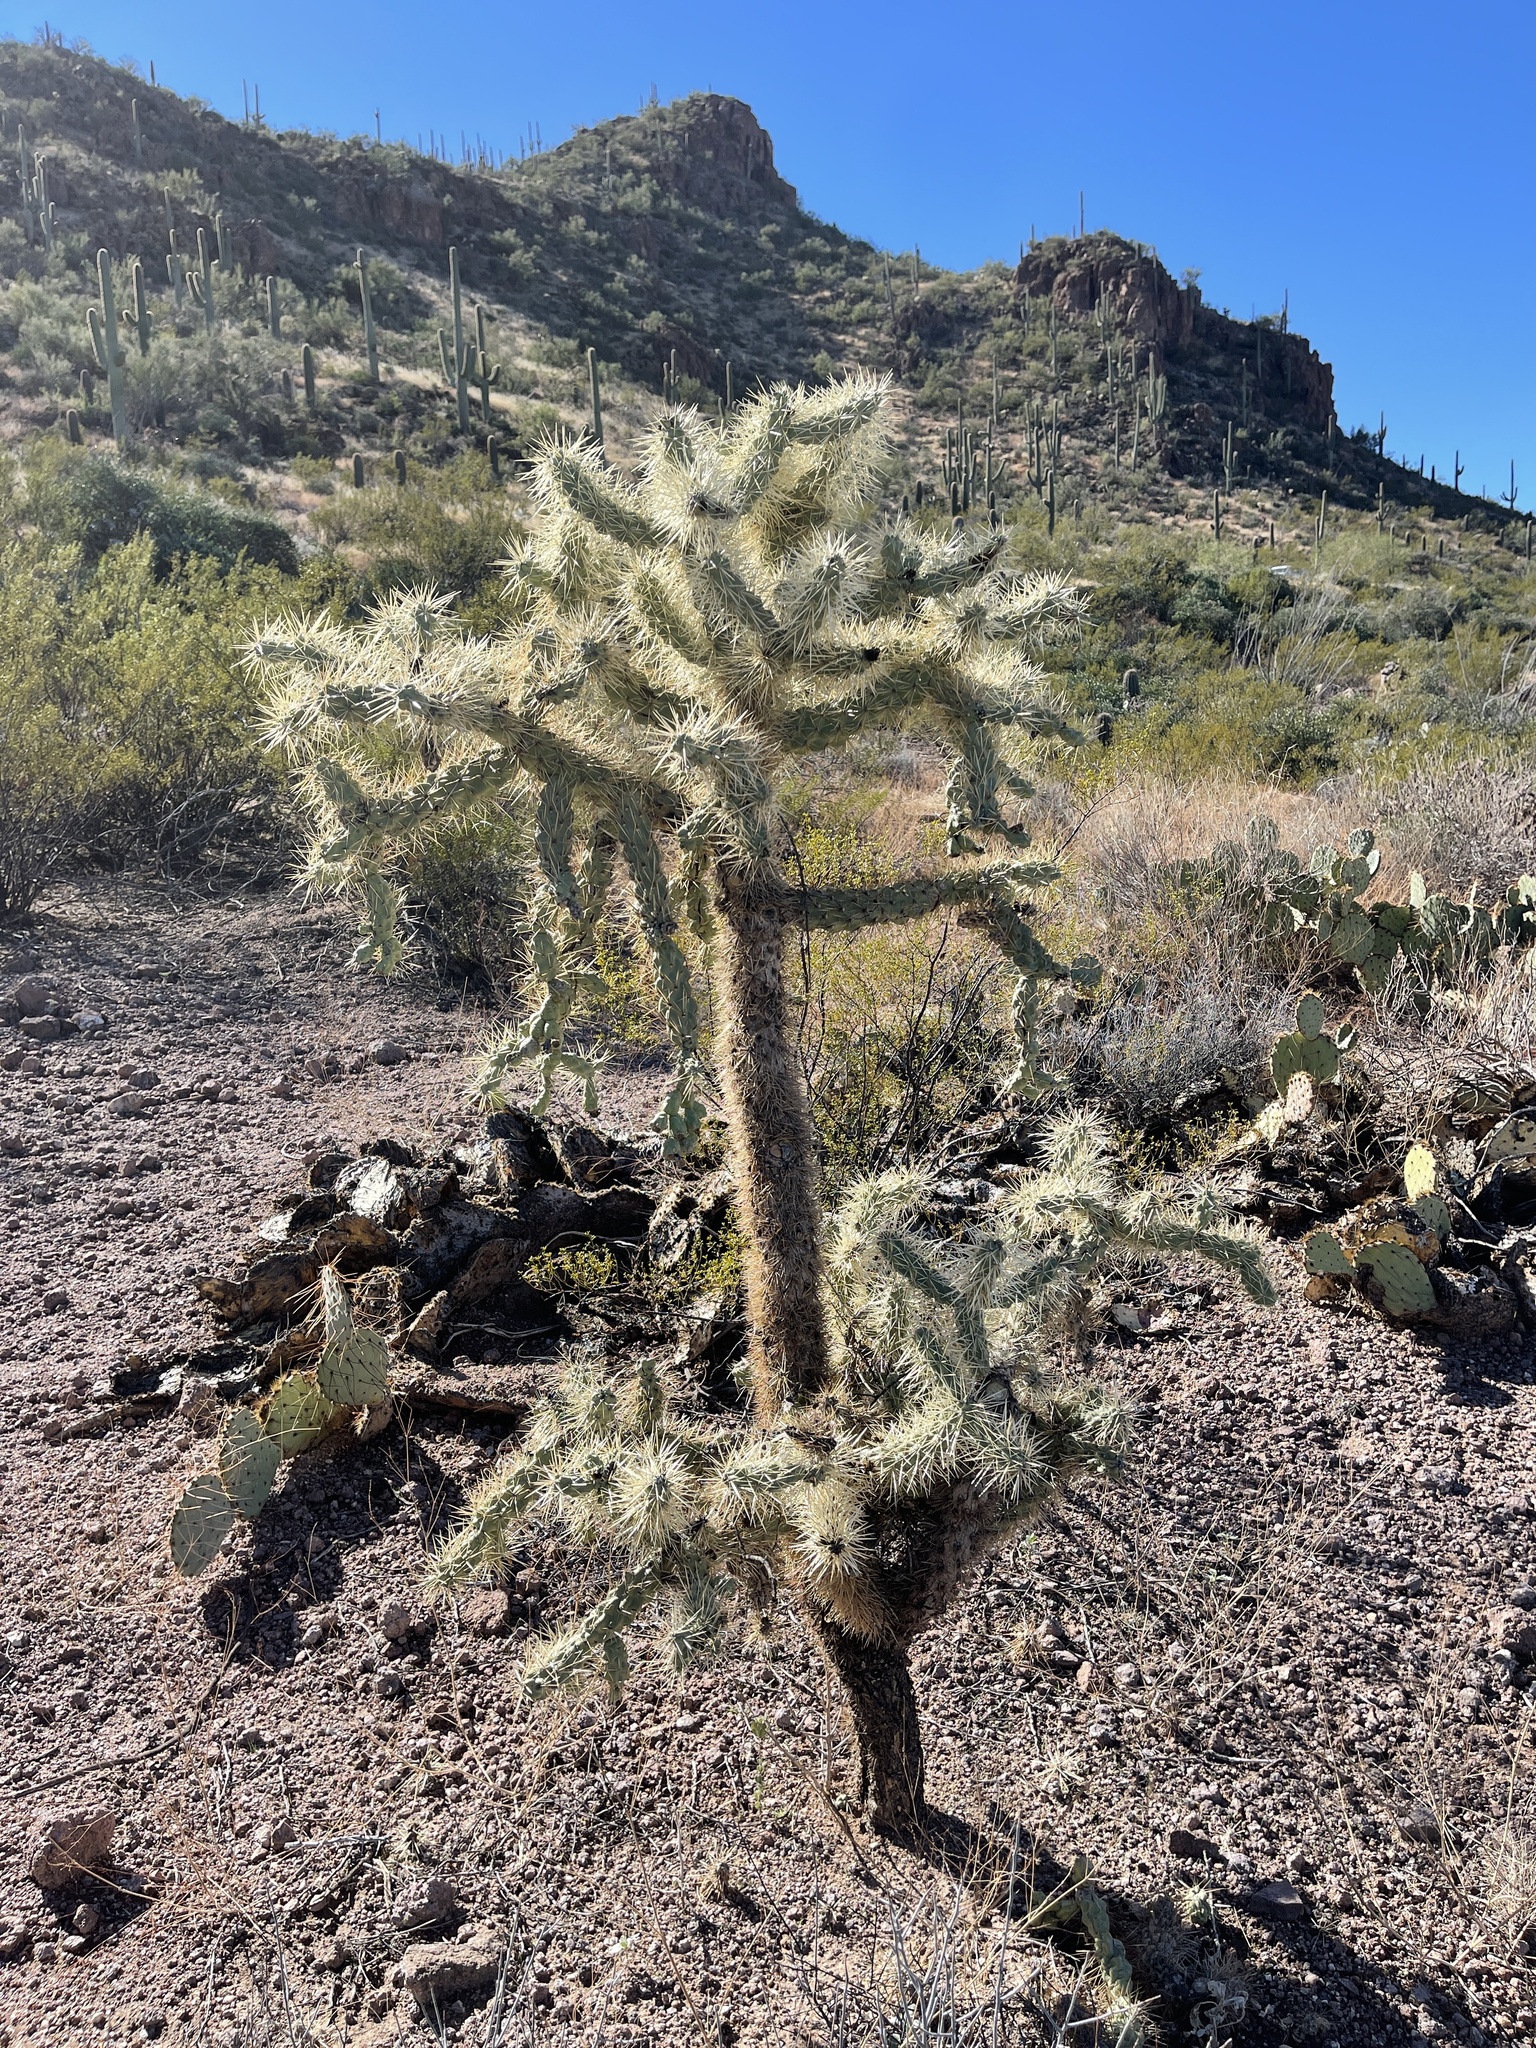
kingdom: Plantae
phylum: Tracheophyta
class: Magnoliopsida
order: Caryophyllales
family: Cactaceae
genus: Cylindropuntia
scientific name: Cylindropuntia fulgida
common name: Jumping cholla
